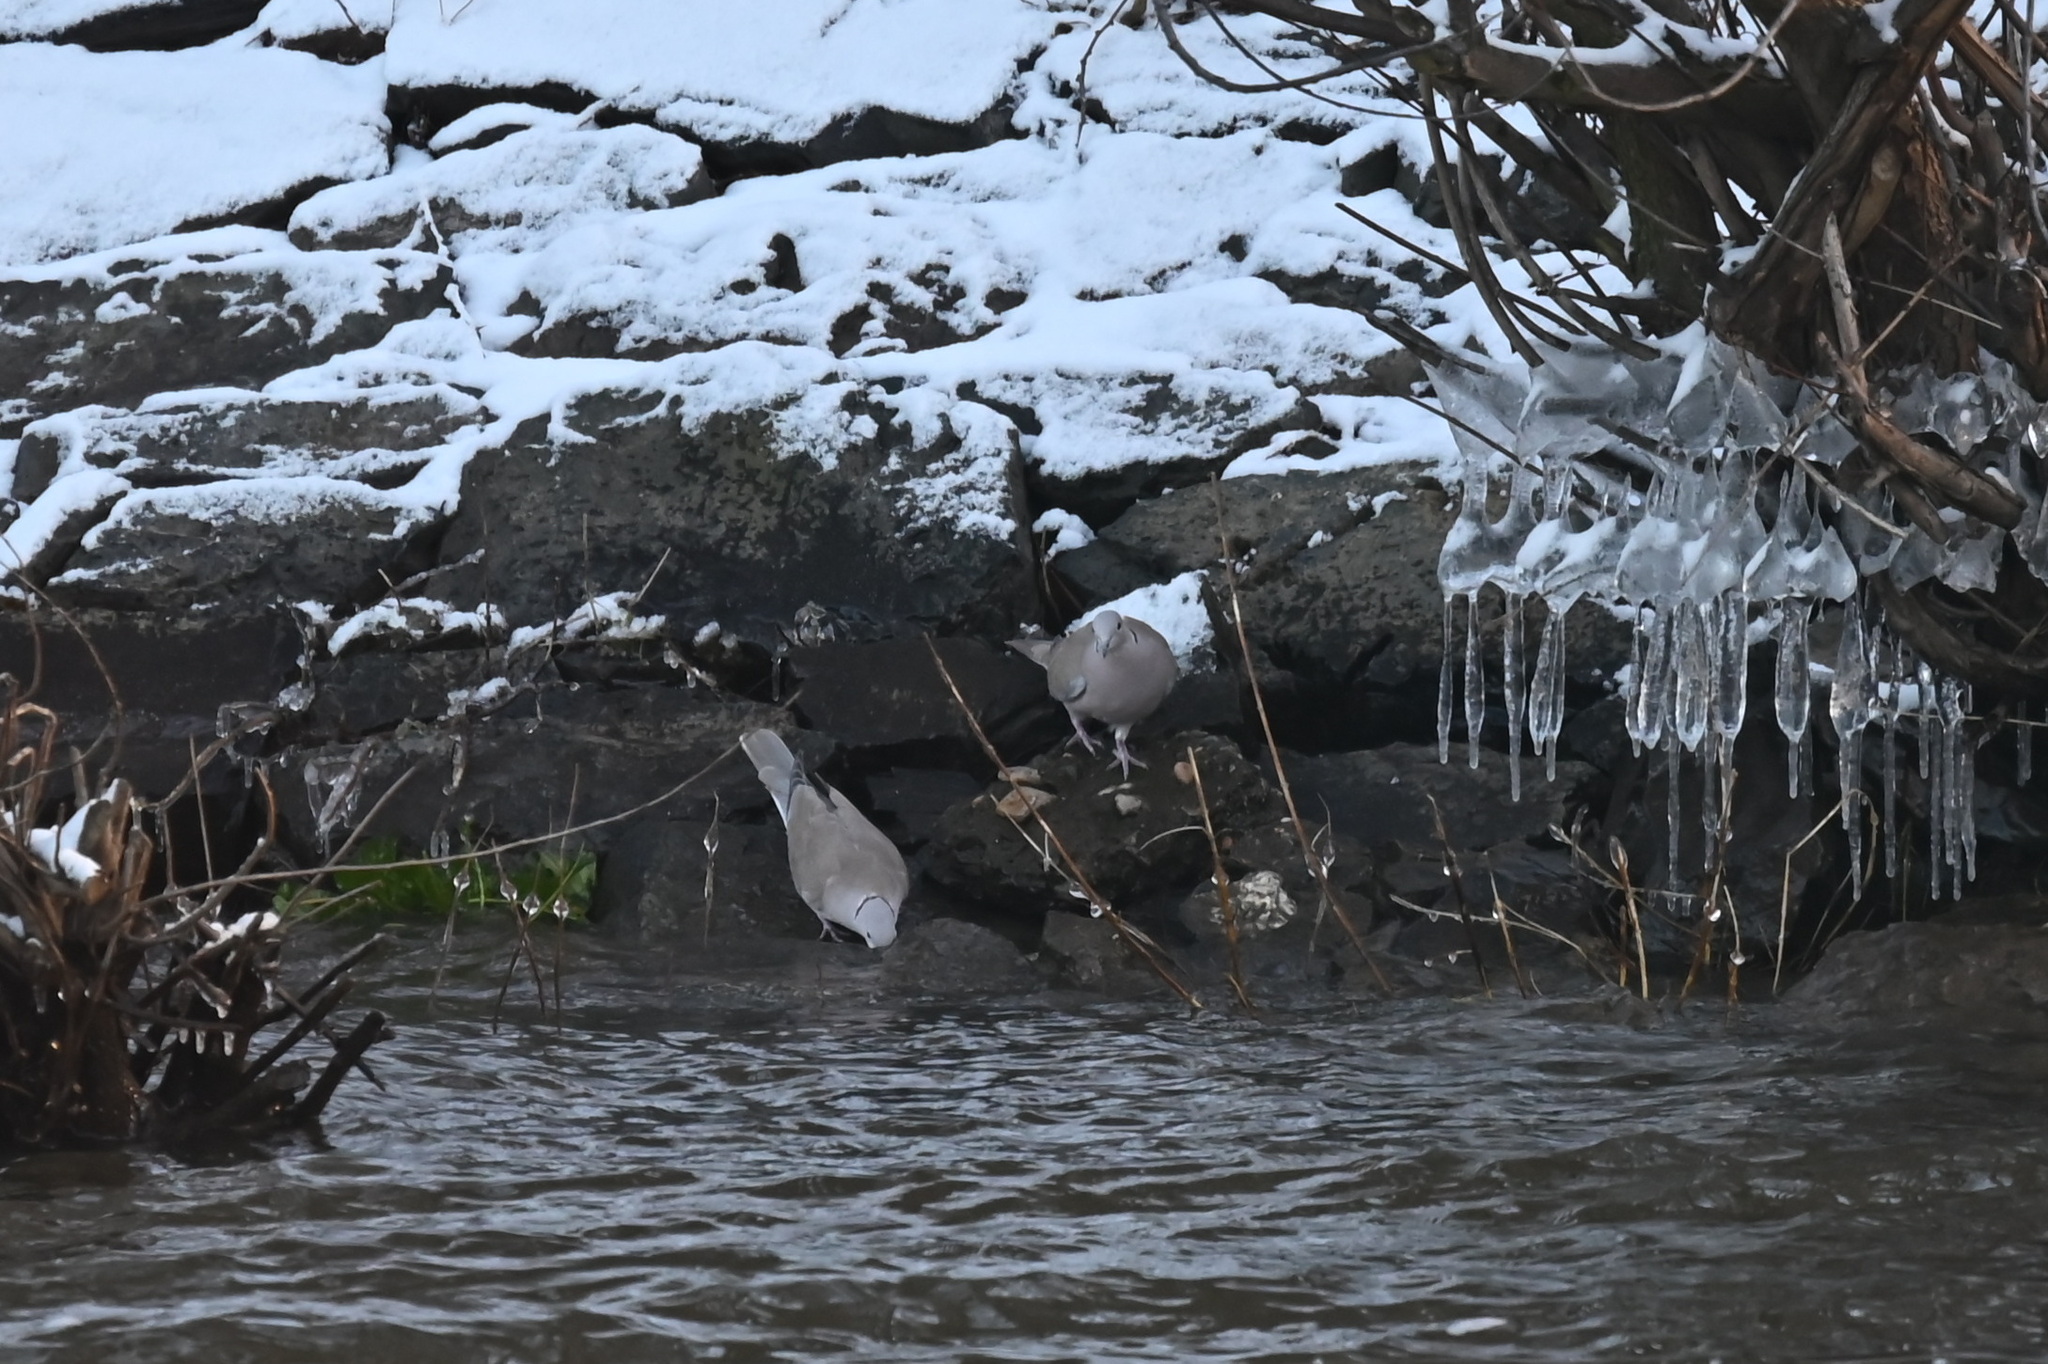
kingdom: Animalia
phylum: Chordata
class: Aves
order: Columbiformes
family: Columbidae
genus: Streptopelia
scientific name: Streptopelia decaocto
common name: Eurasian collared dove
